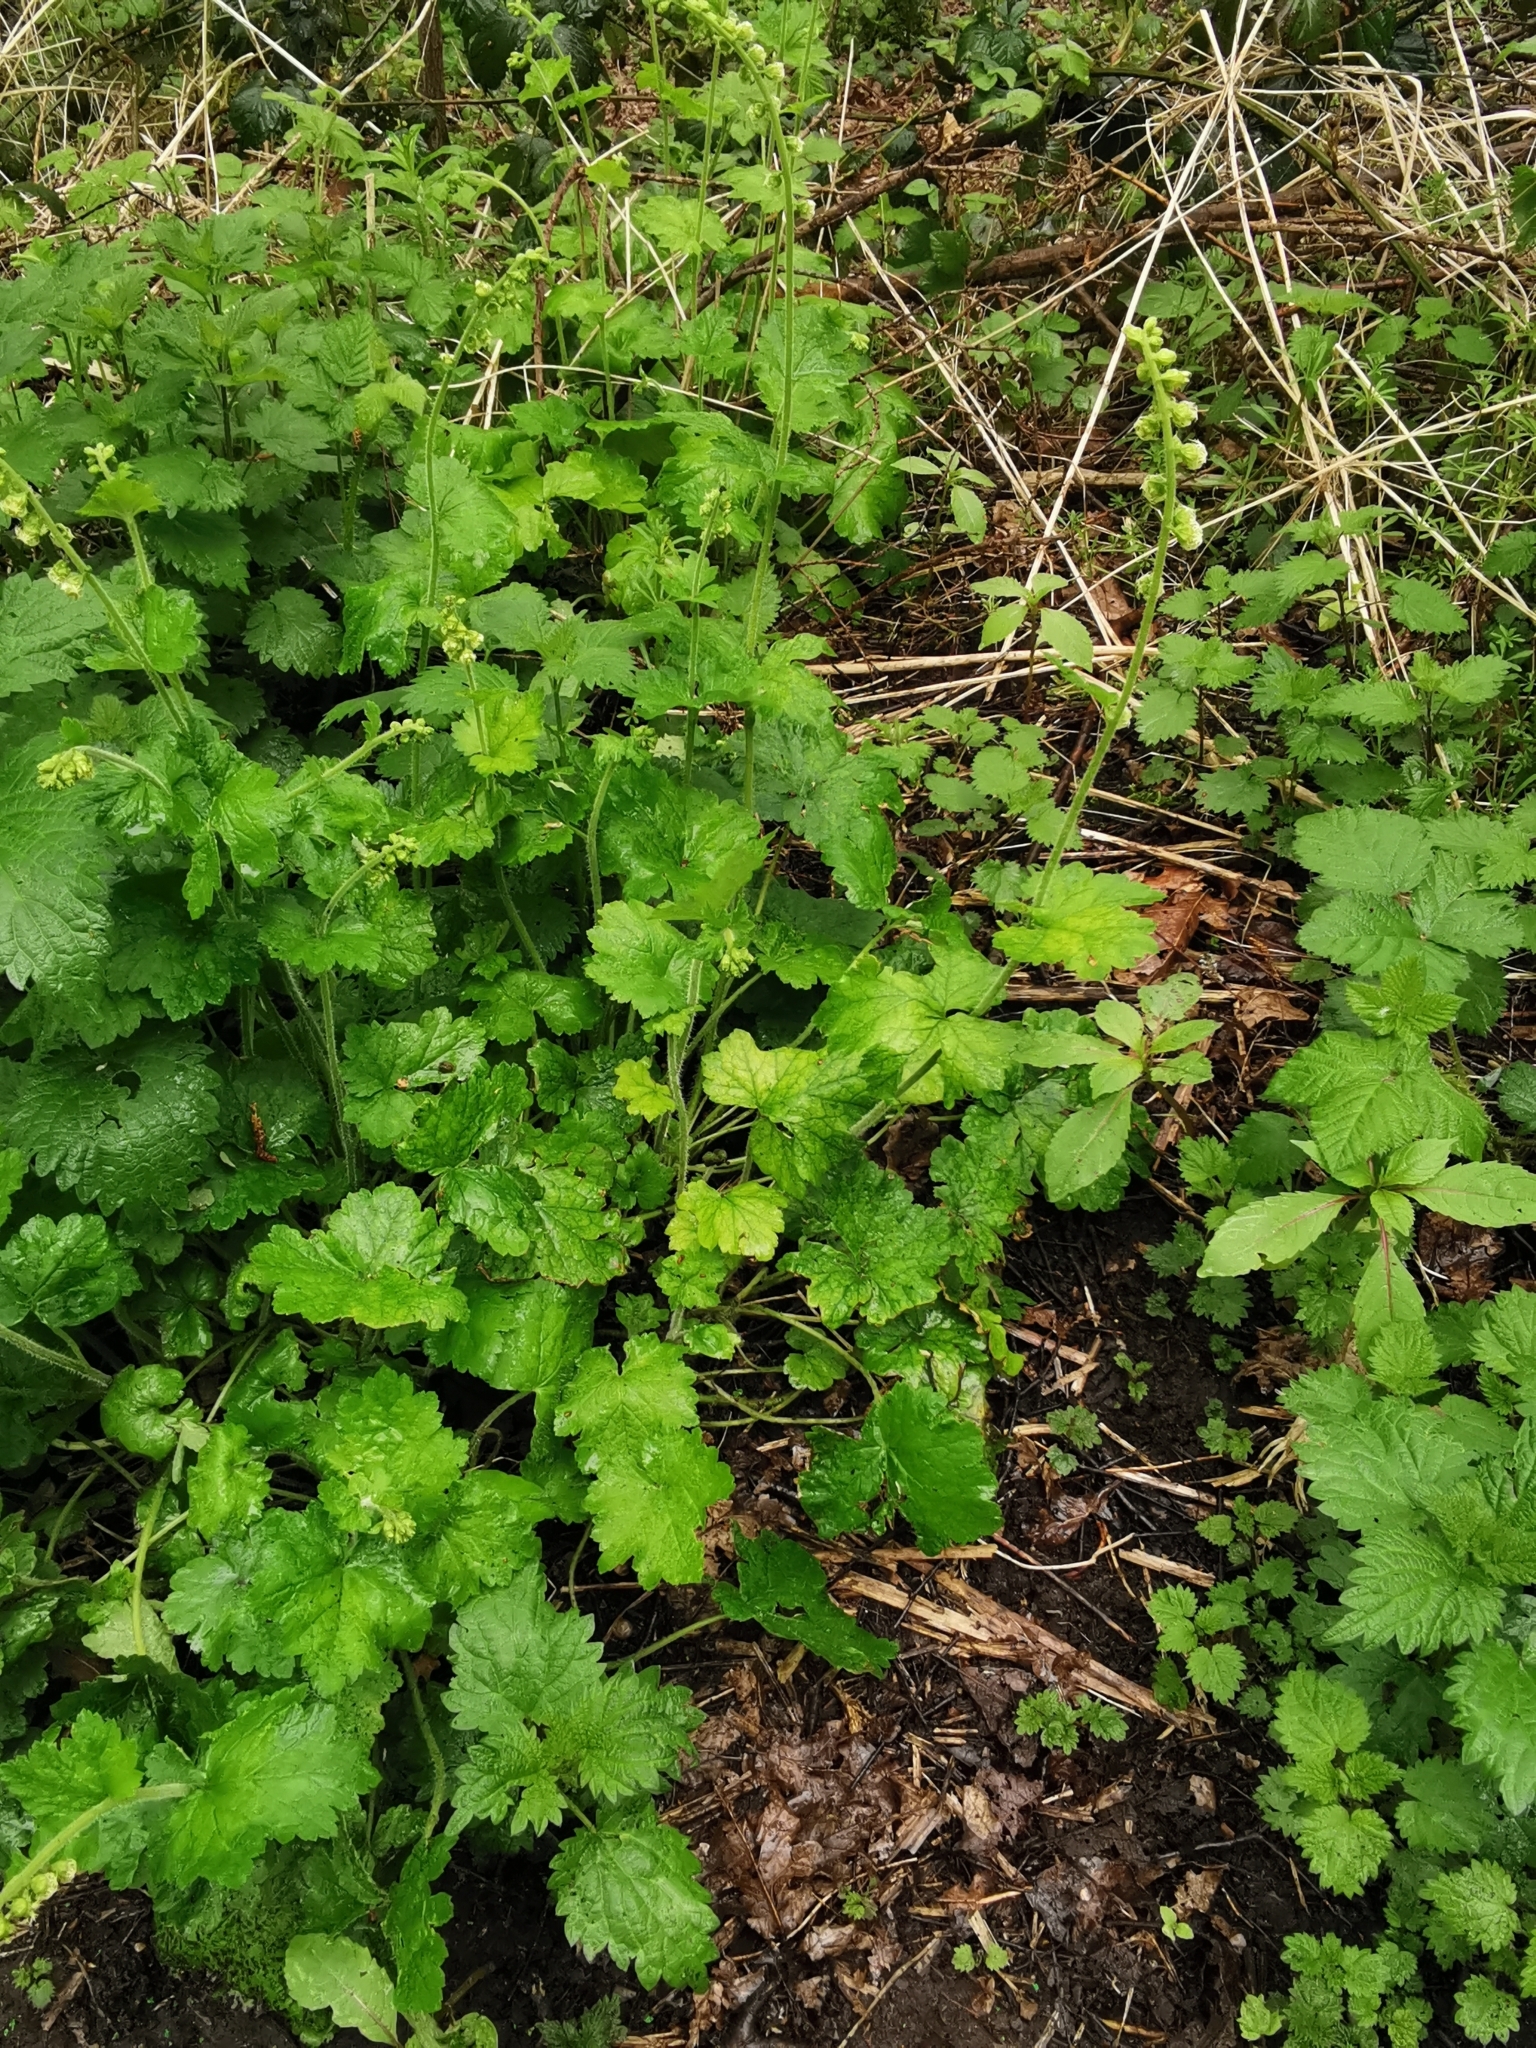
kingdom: Plantae
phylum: Tracheophyta
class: Magnoliopsida
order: Saxifragales
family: Saxifragaceae
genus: Tellima
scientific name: Tellima grandiflora
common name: Fringecups
